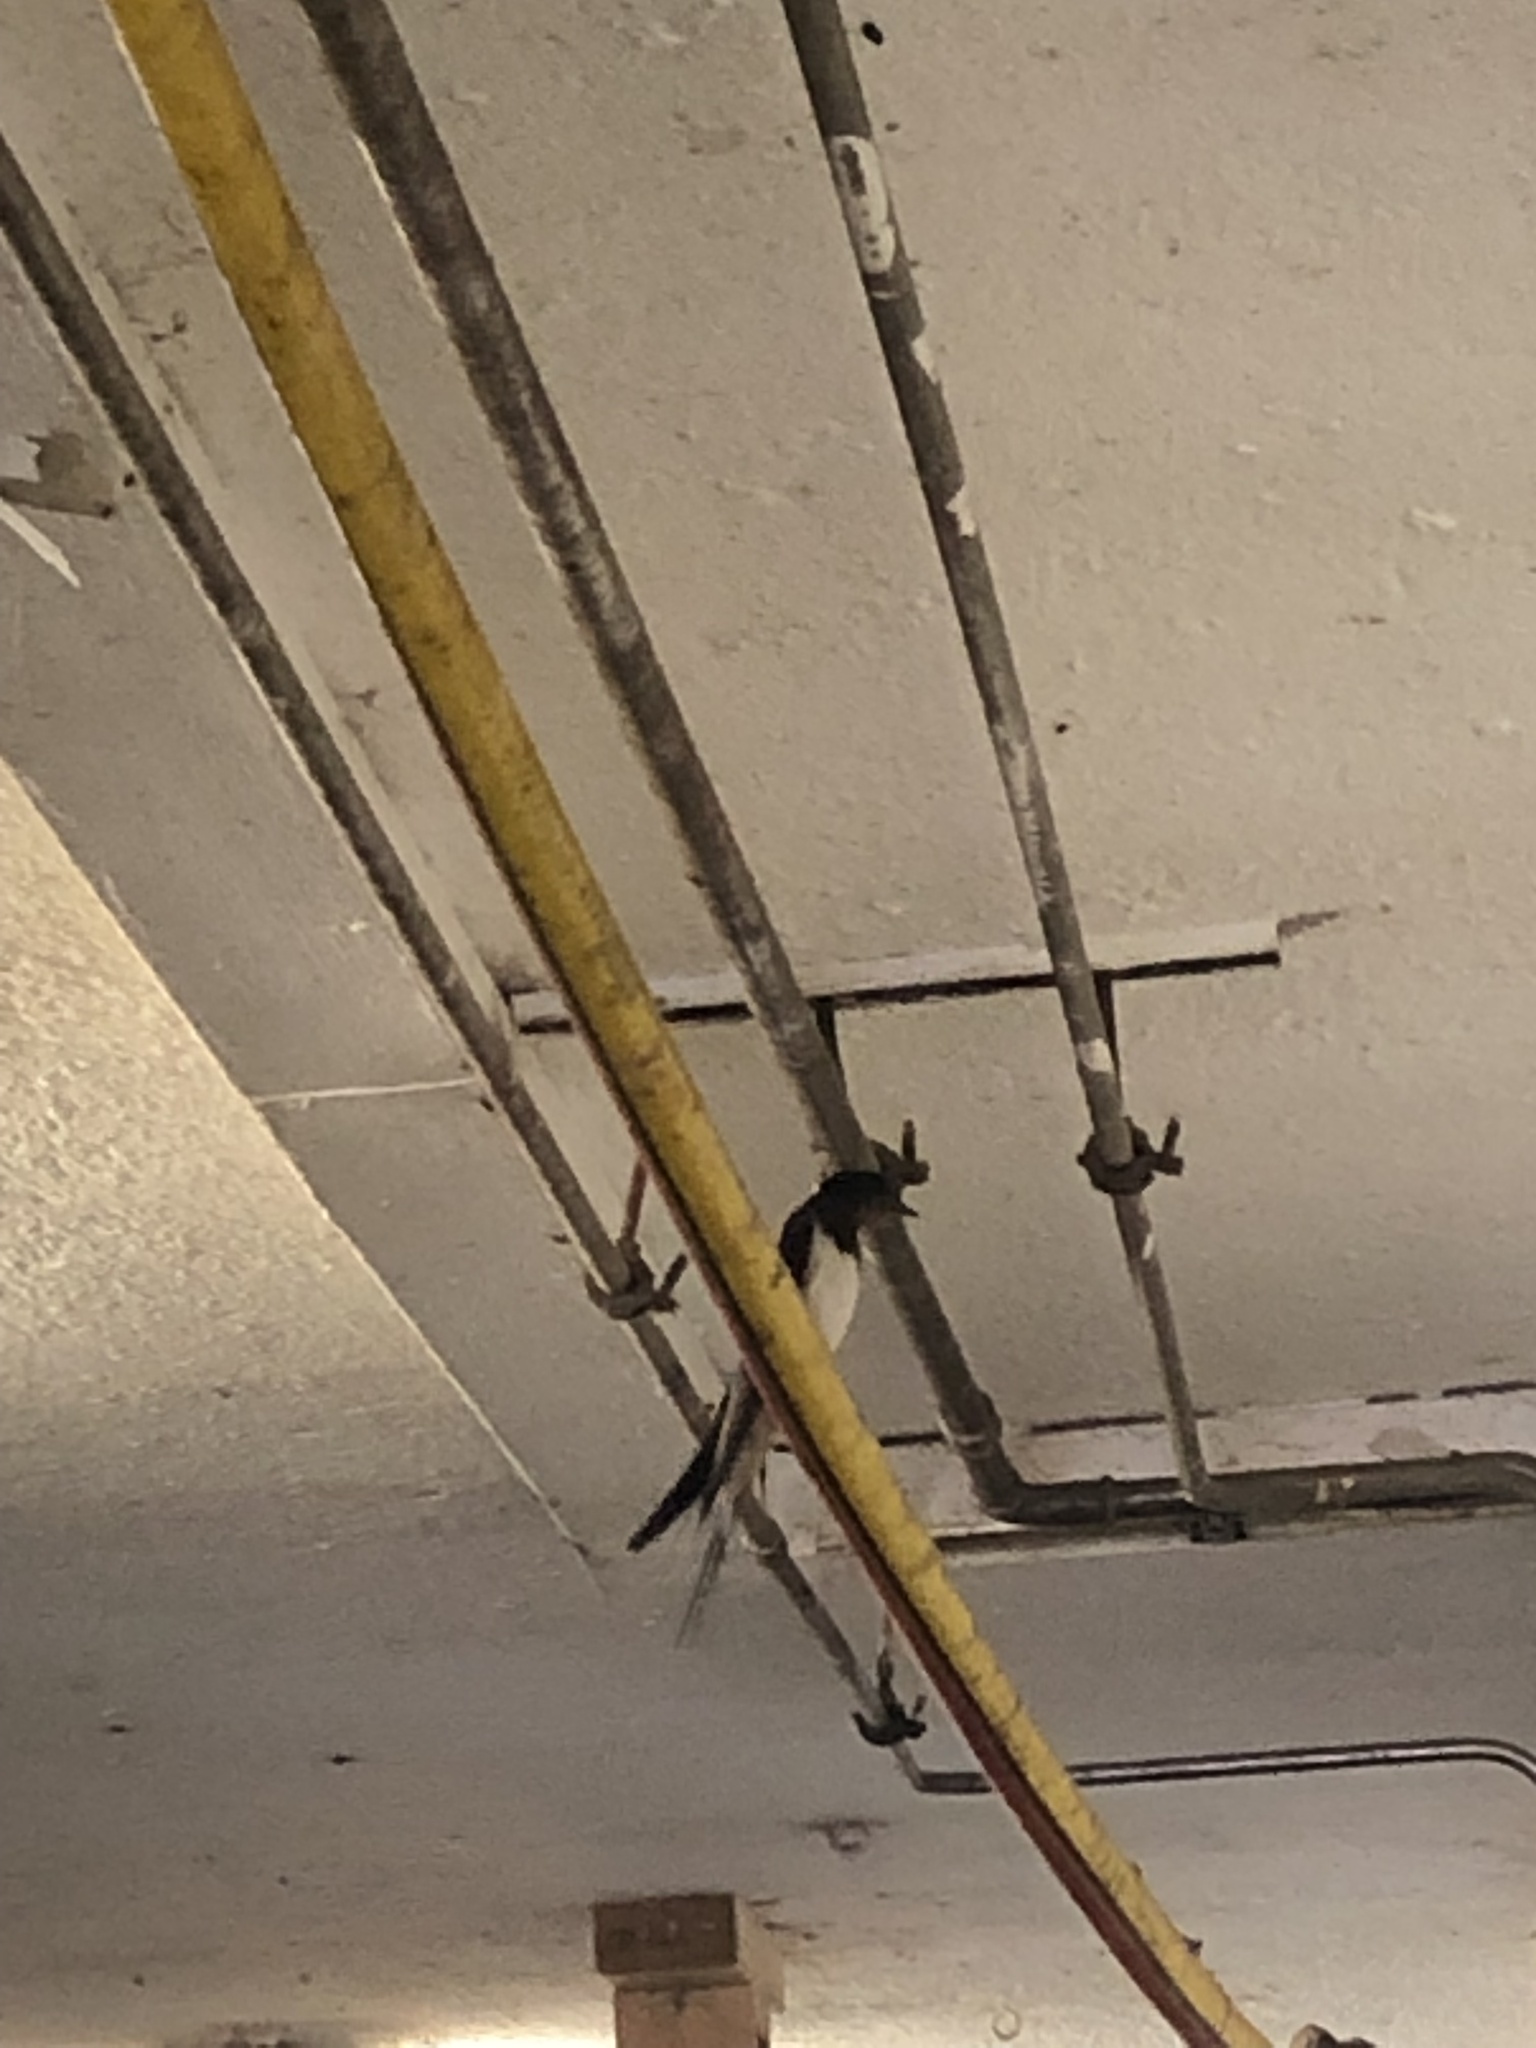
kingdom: Animalia
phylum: Chordata
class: Aves
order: Passeriformes
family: Hirundinidae
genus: Hirundo
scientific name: Hirundo rustica
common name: Barn swallow
